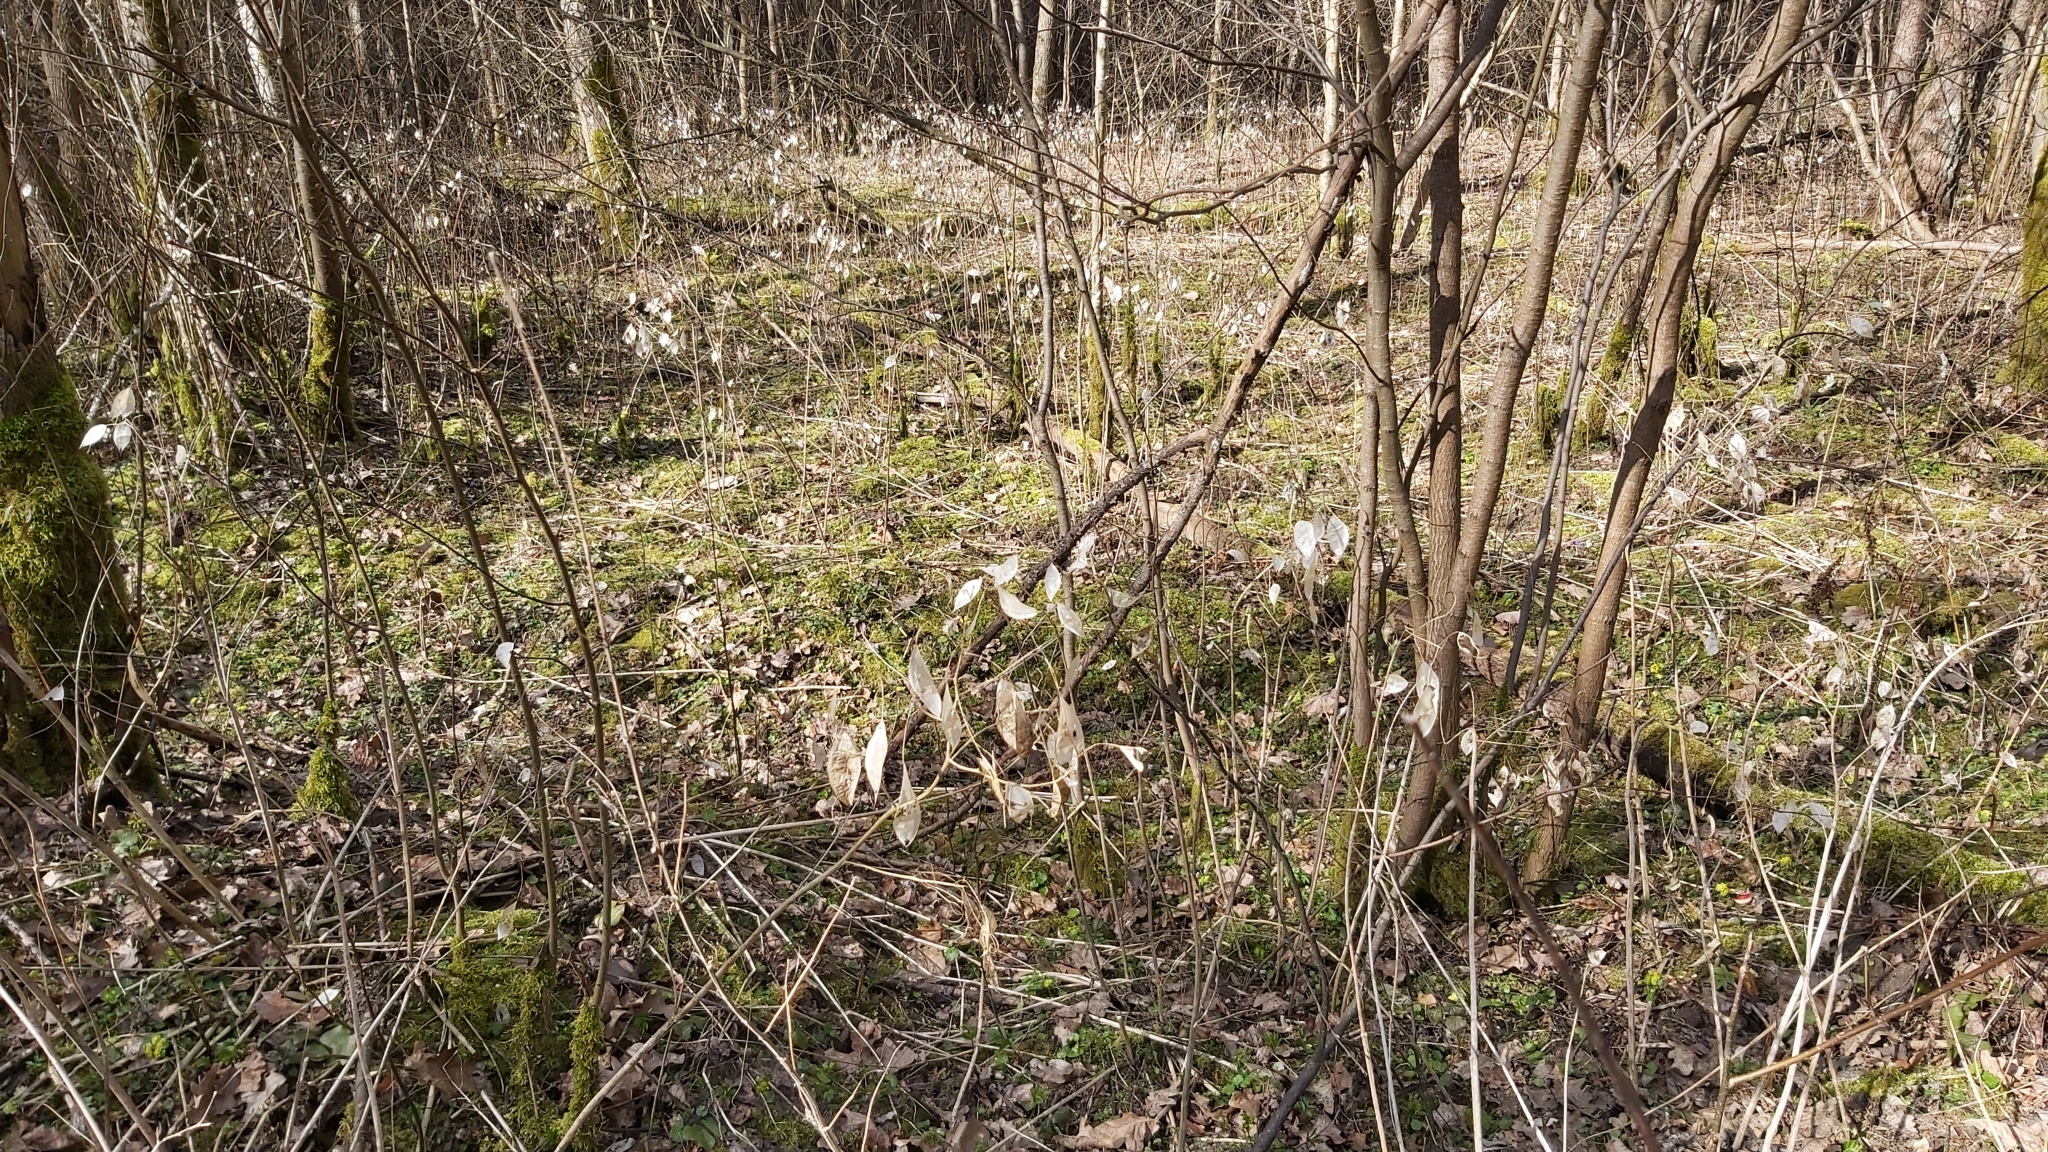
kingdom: Plantae
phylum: Tracheophyta
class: Magnoliopsida
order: Brassicales
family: Brassicaceae
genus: Lunaria
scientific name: Lunaria rediviva
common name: Perennial honesty
